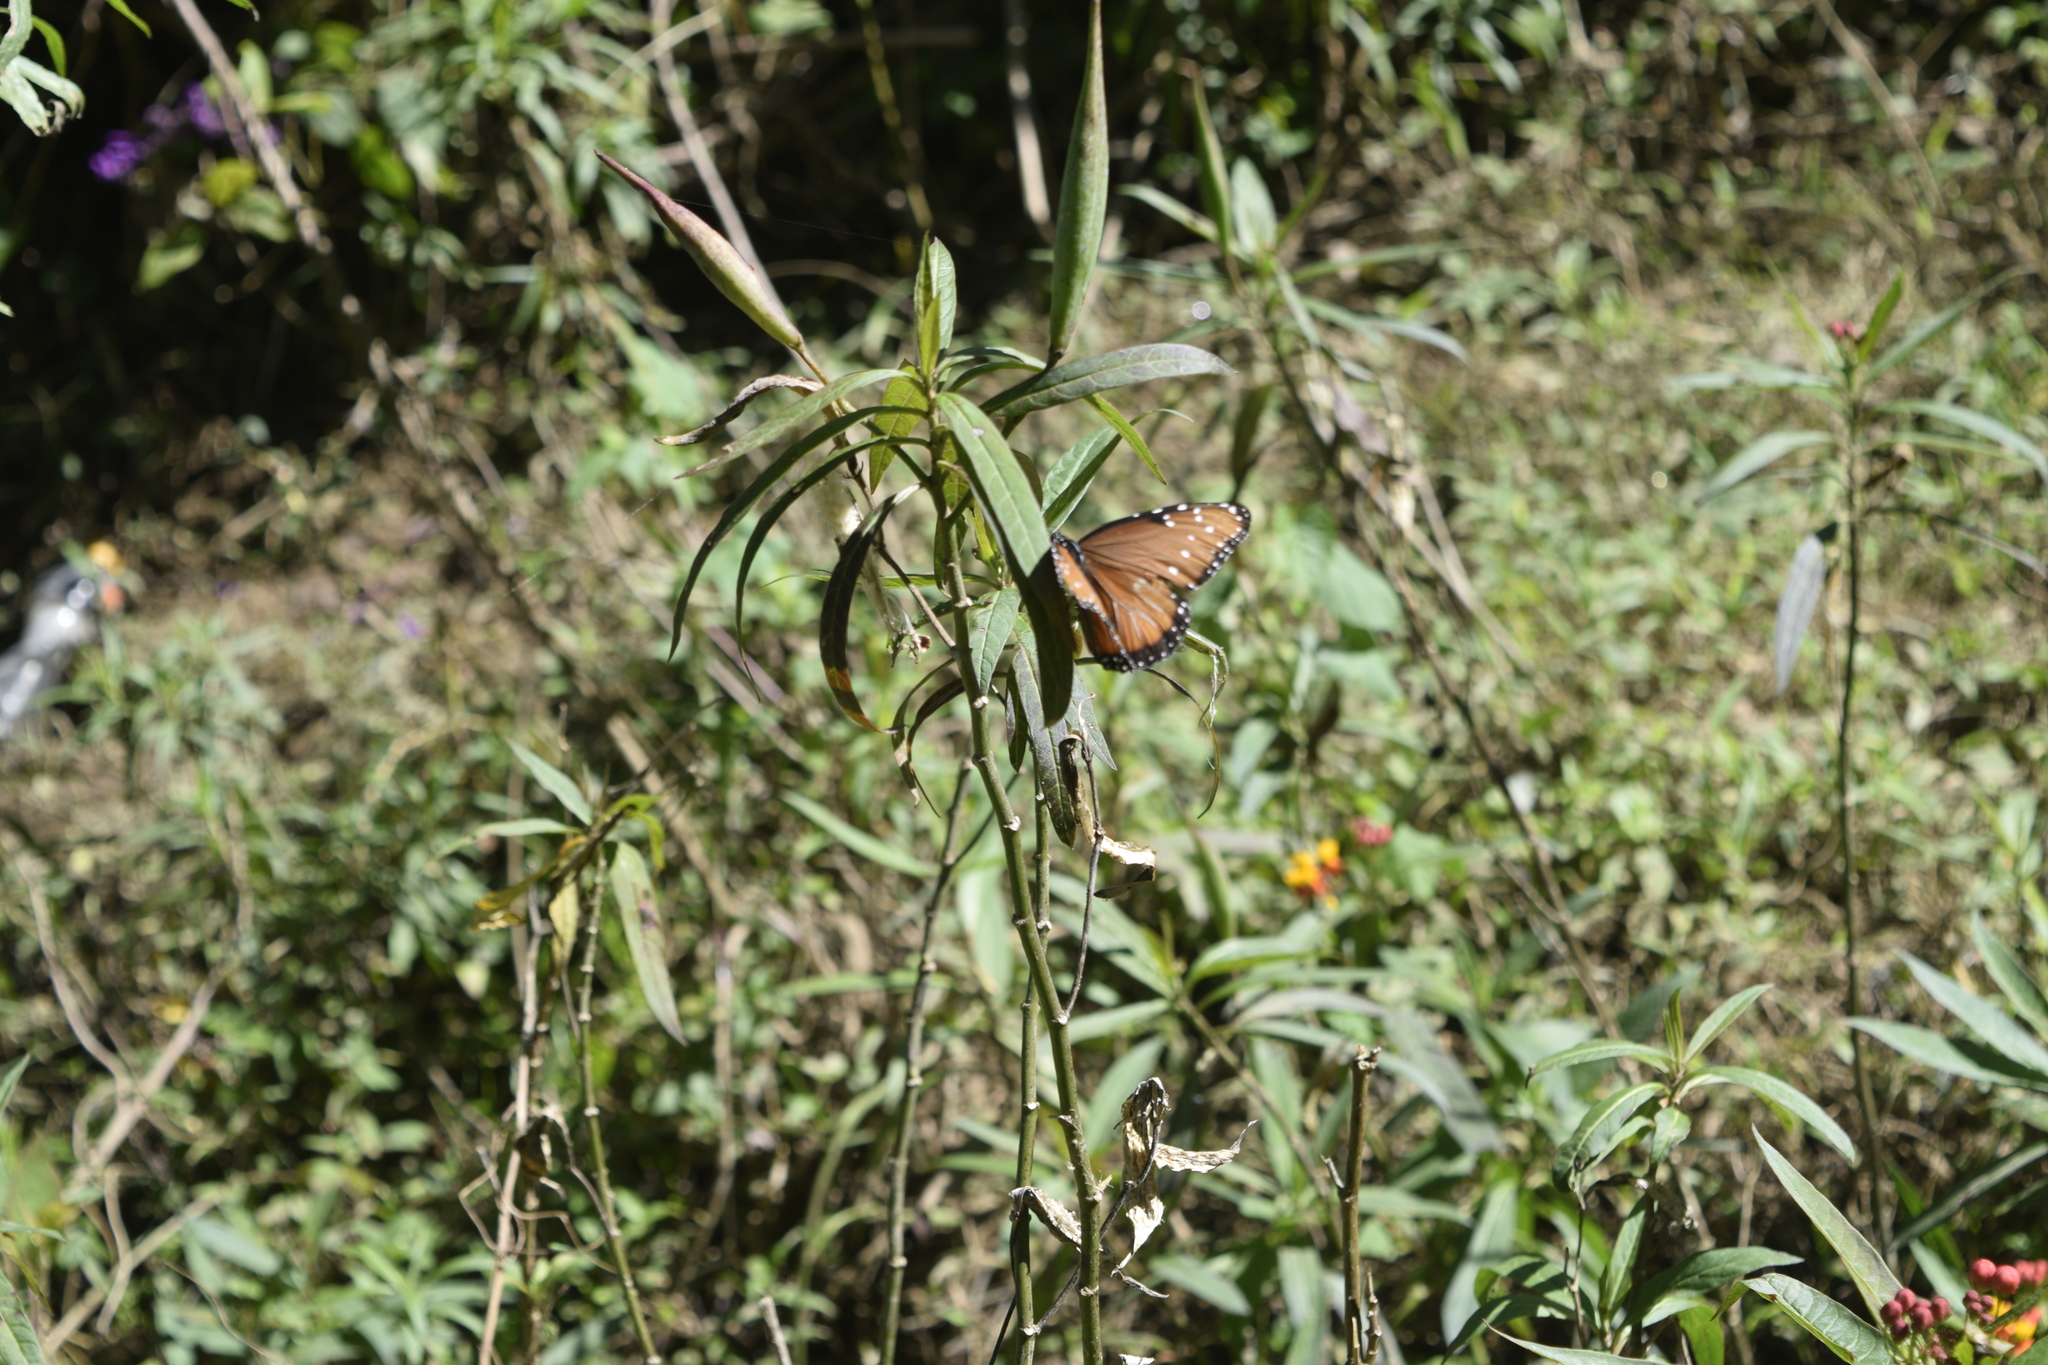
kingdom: Animalia
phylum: Arthropoda
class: Insecta
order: Lepidoptera
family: Nymphalidae
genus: Danaus
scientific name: Danaus gilippus
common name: Queen
